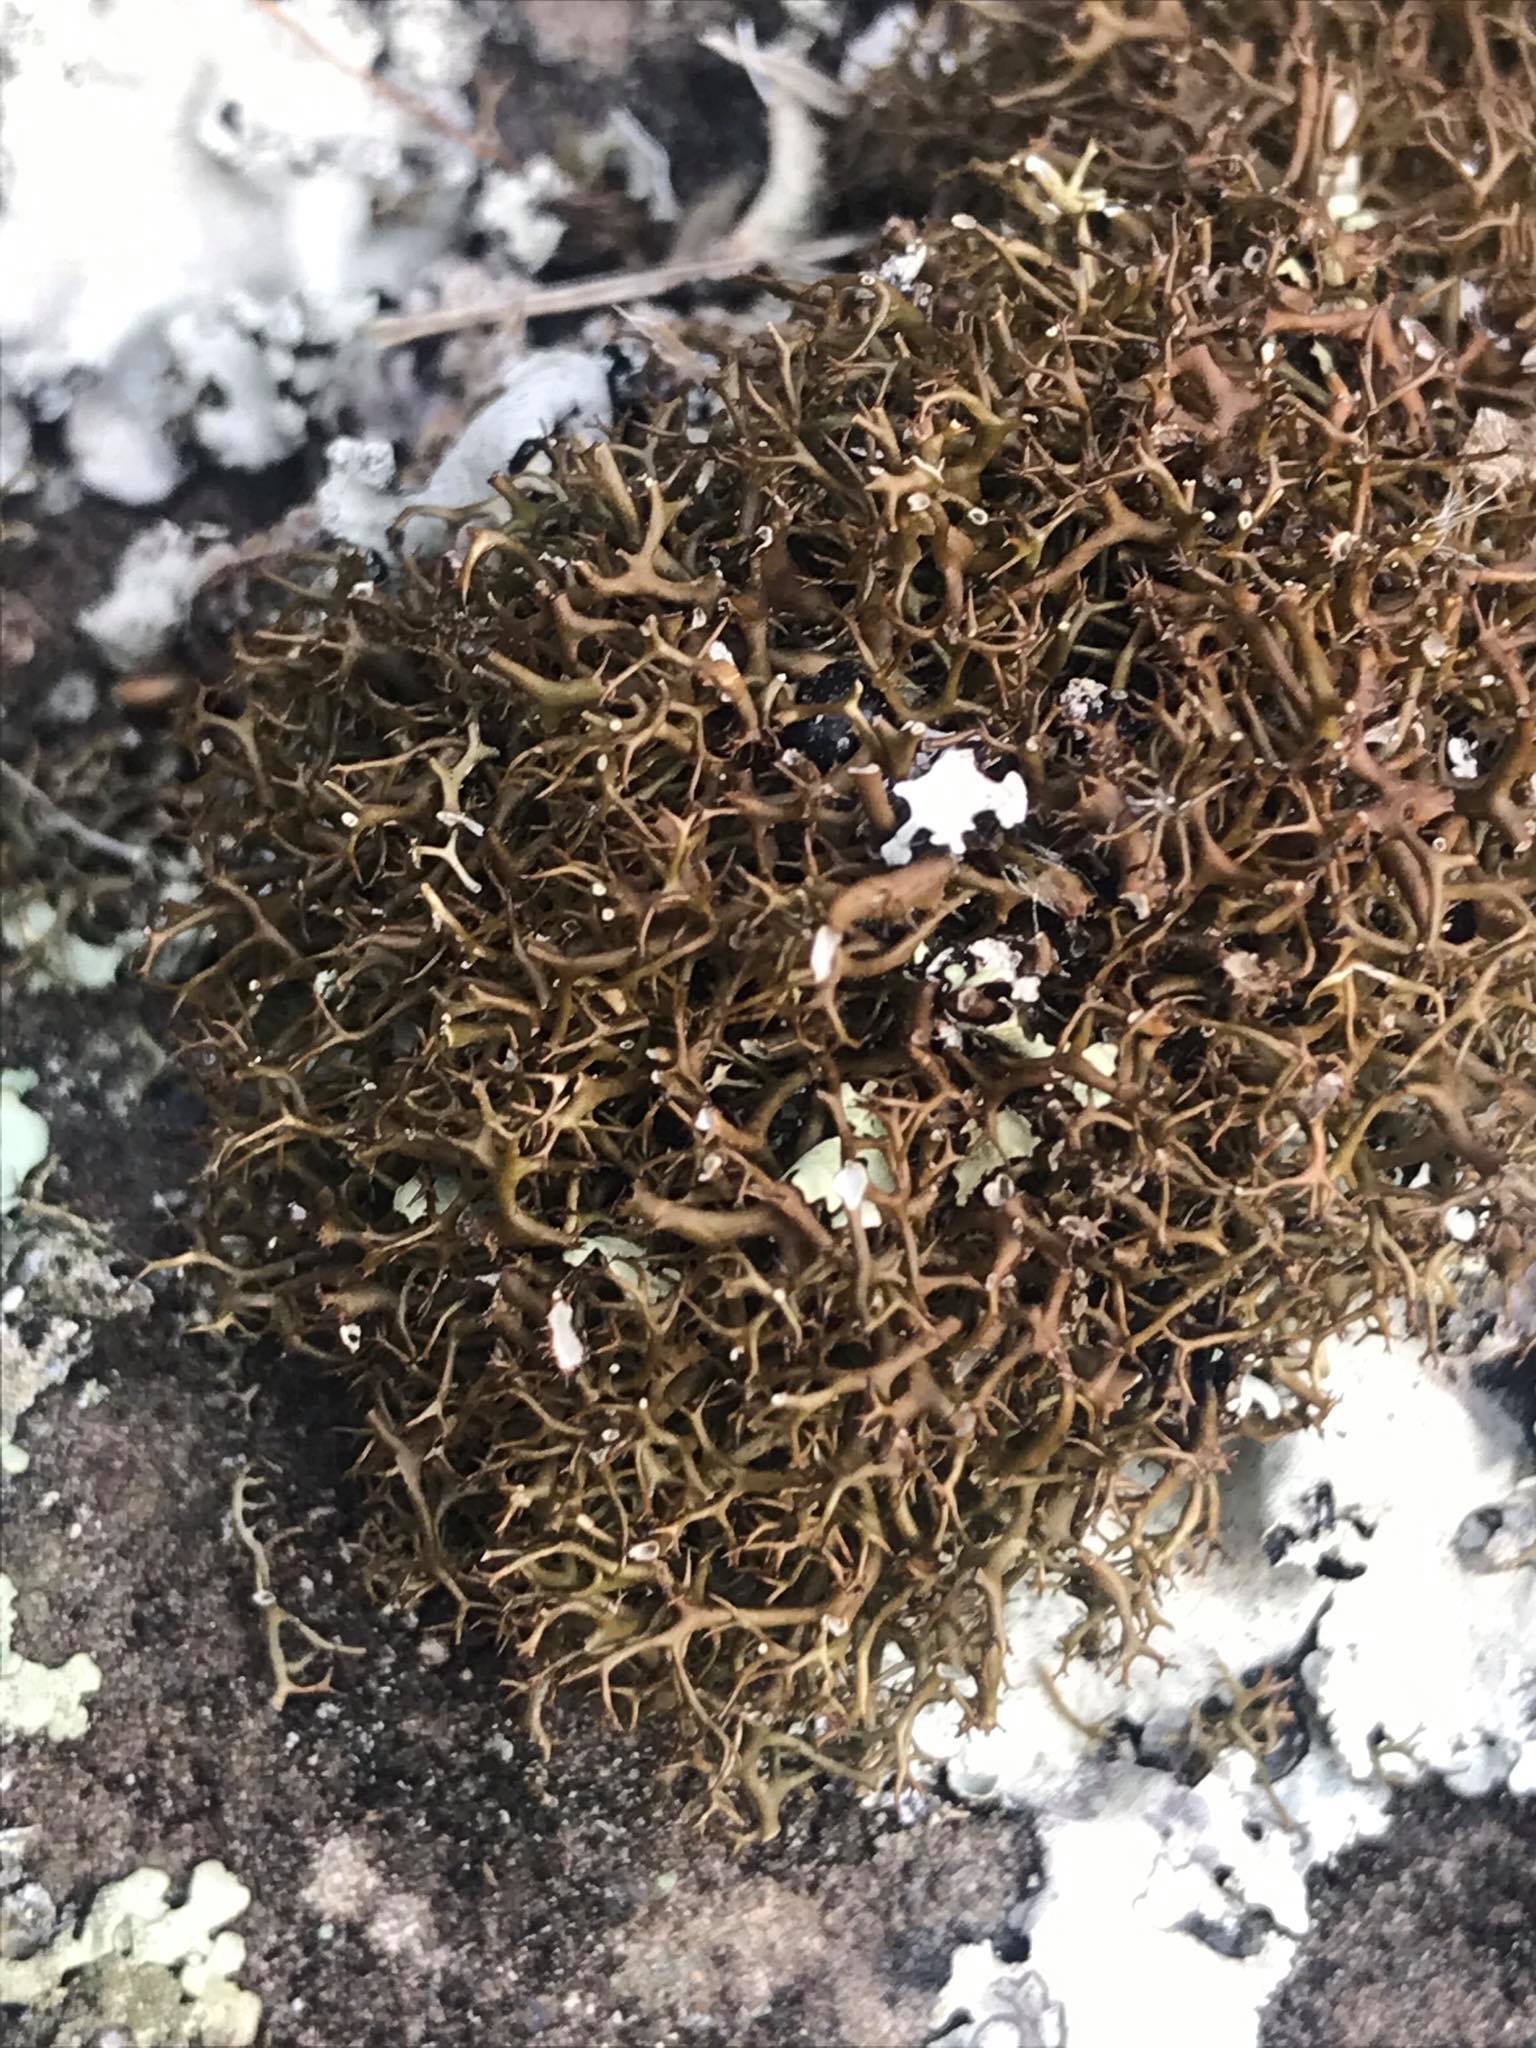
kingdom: Fungi
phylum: Ascomycota
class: Lecanoromycetes
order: Lecanorales
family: Cladoniaceae
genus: Cladia
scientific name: Cladia gorgonea
